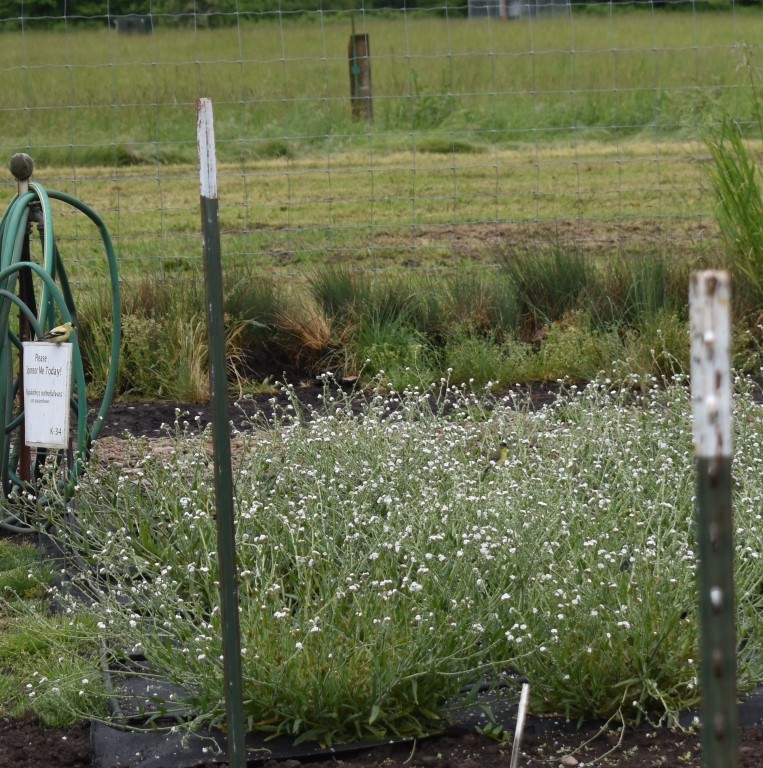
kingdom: Animalia
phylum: Chordata
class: Aves
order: Passeriformes
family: Fringillidae
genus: Spinus
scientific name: Spinus tristis
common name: American goldfinch
